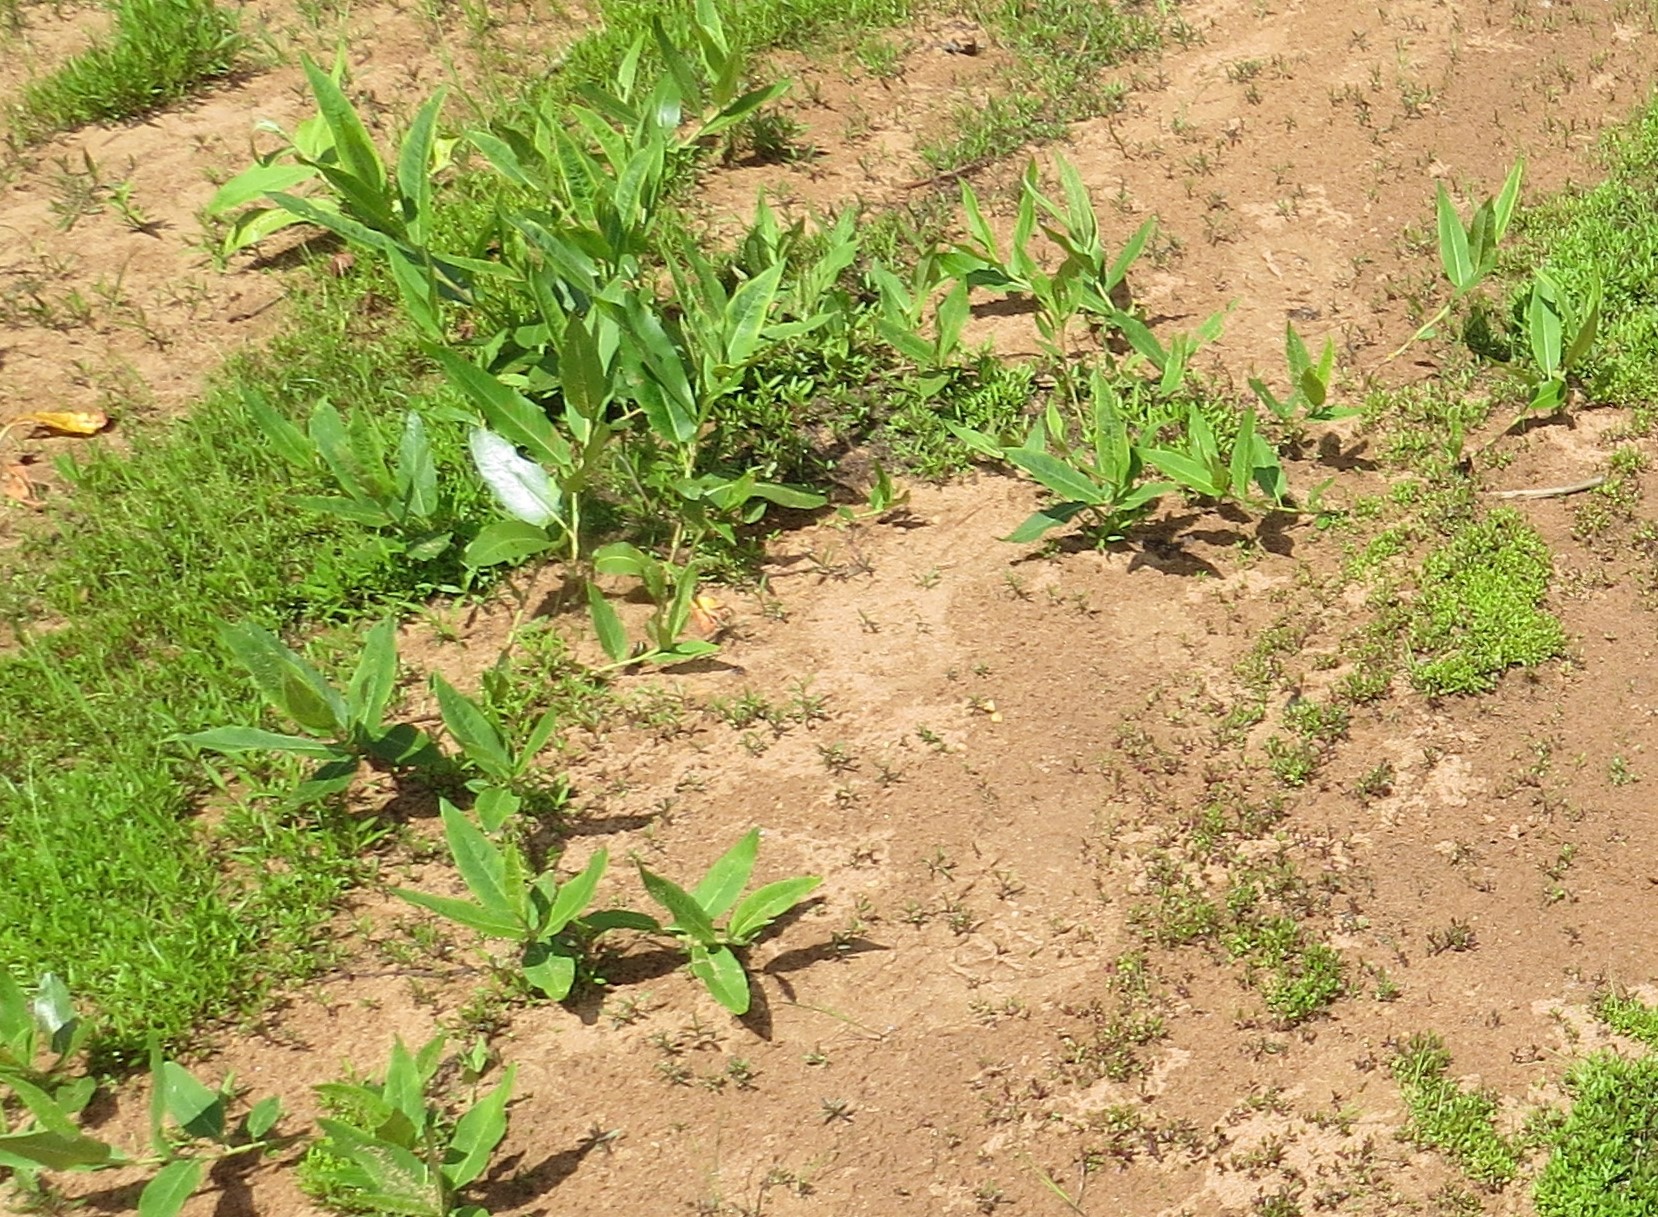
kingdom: Plantae
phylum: Tracheophyta
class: Magnoliopsida
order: Caryophyllales
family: Polygonaceae
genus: Persicaria
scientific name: Persicaria amphibia
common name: Amphibious bistort
